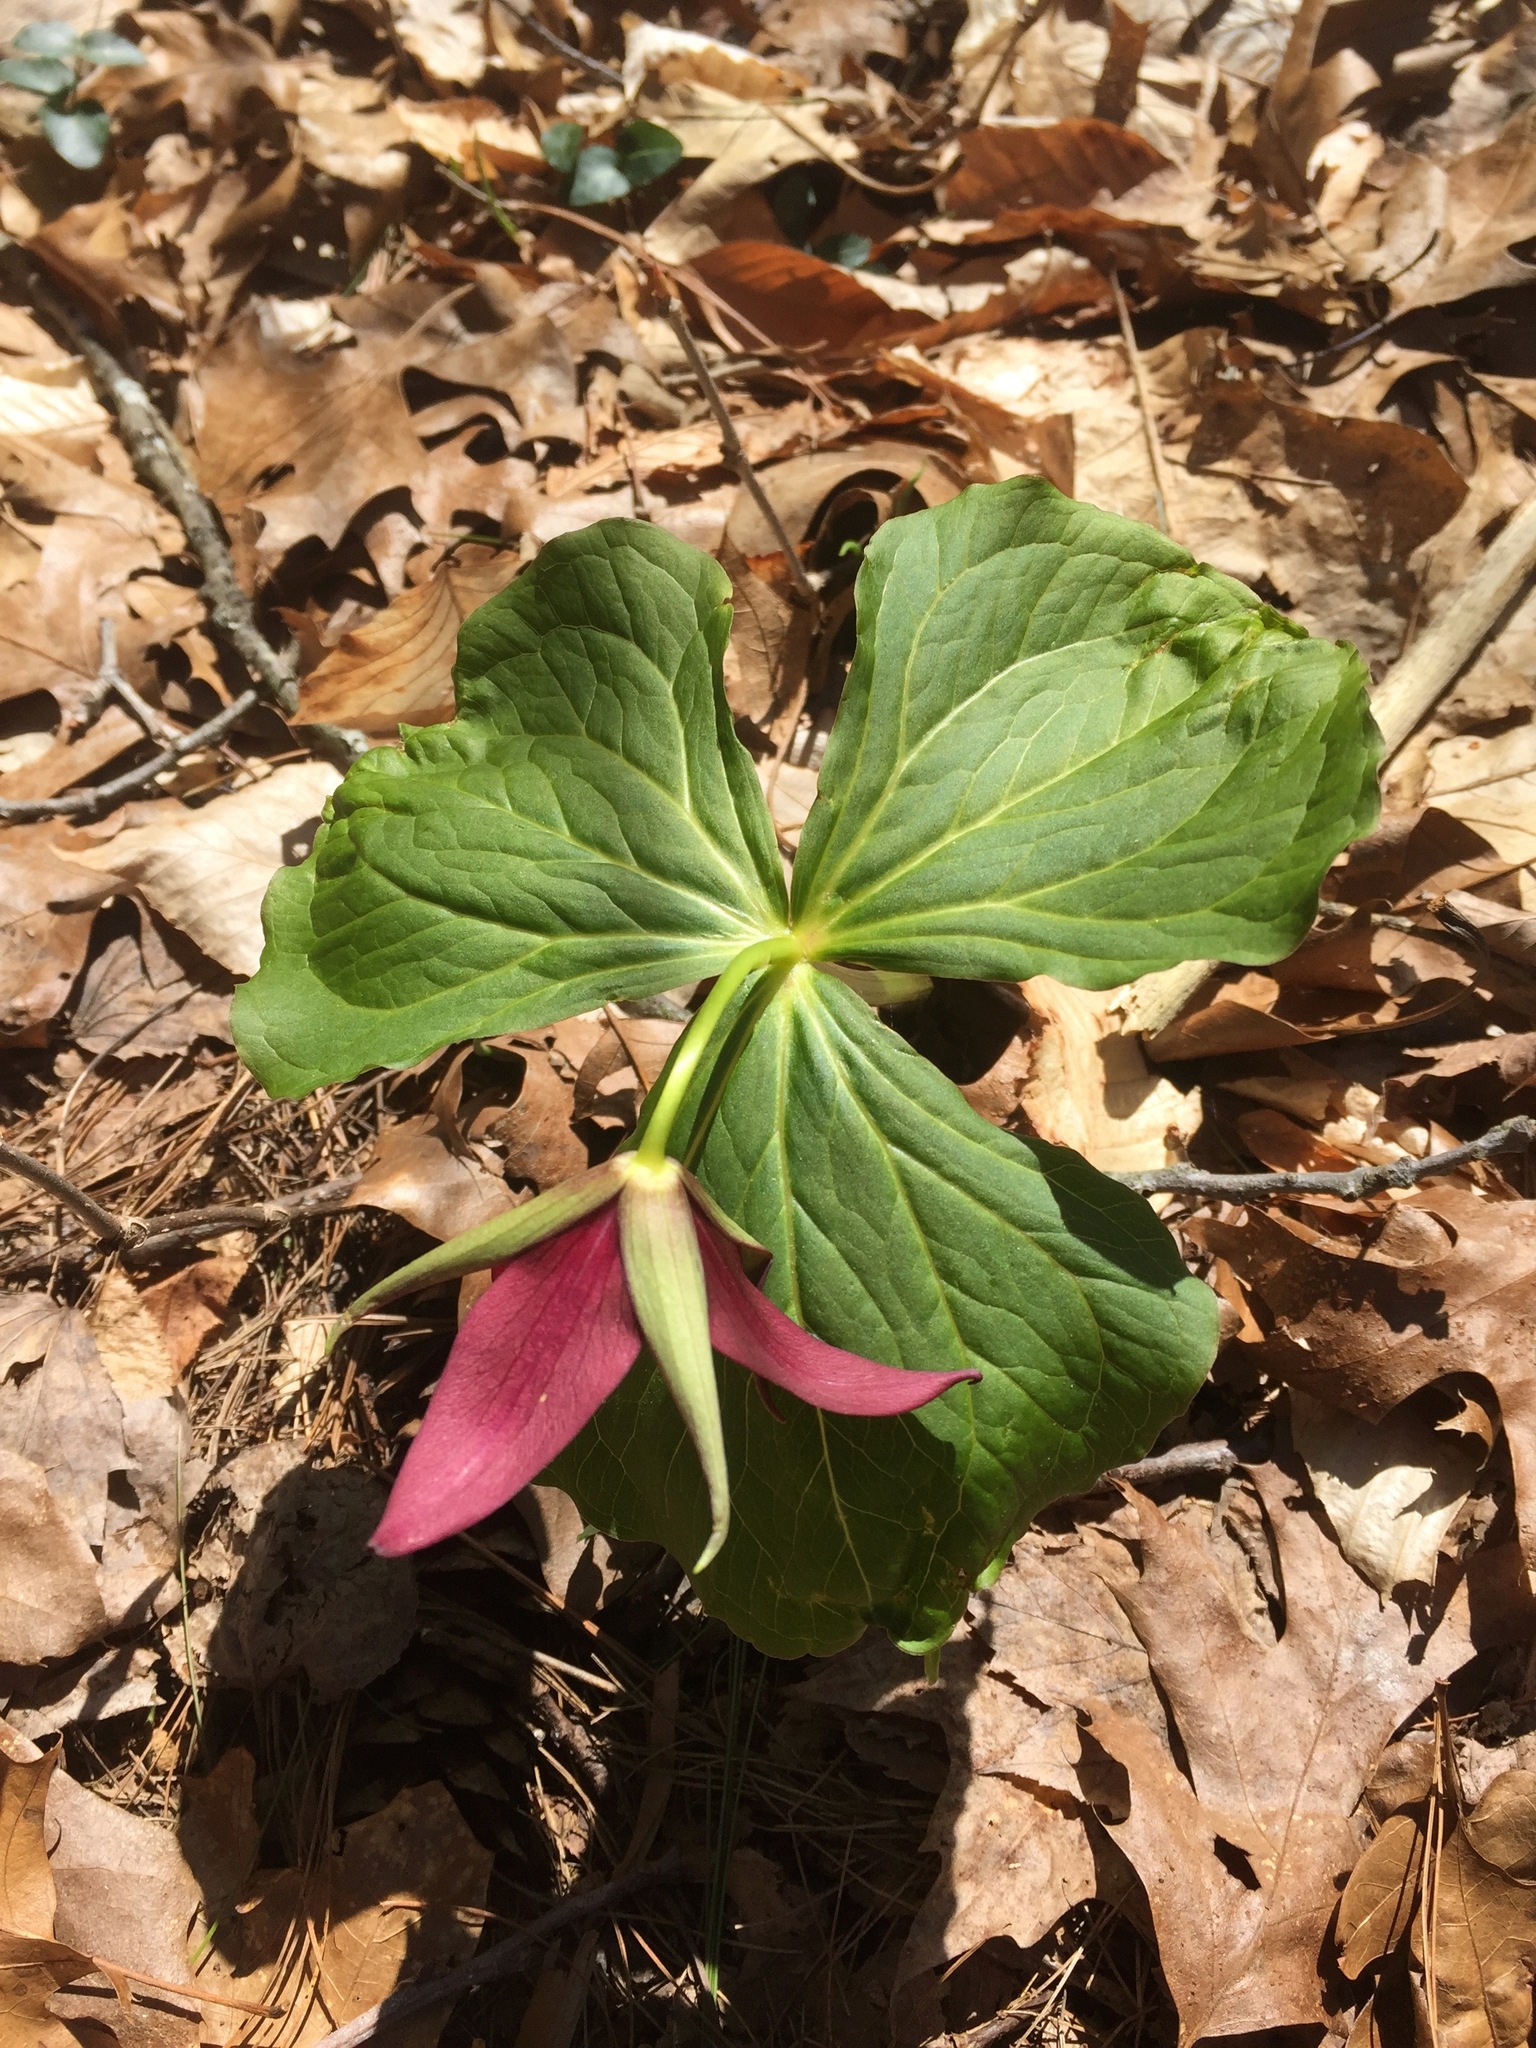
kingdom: Plantae
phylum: Tracheophyta
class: Liliopsida
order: Liliales
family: Melanthiaceae
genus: Trillium
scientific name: Trillium erectum
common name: Purple trillium
